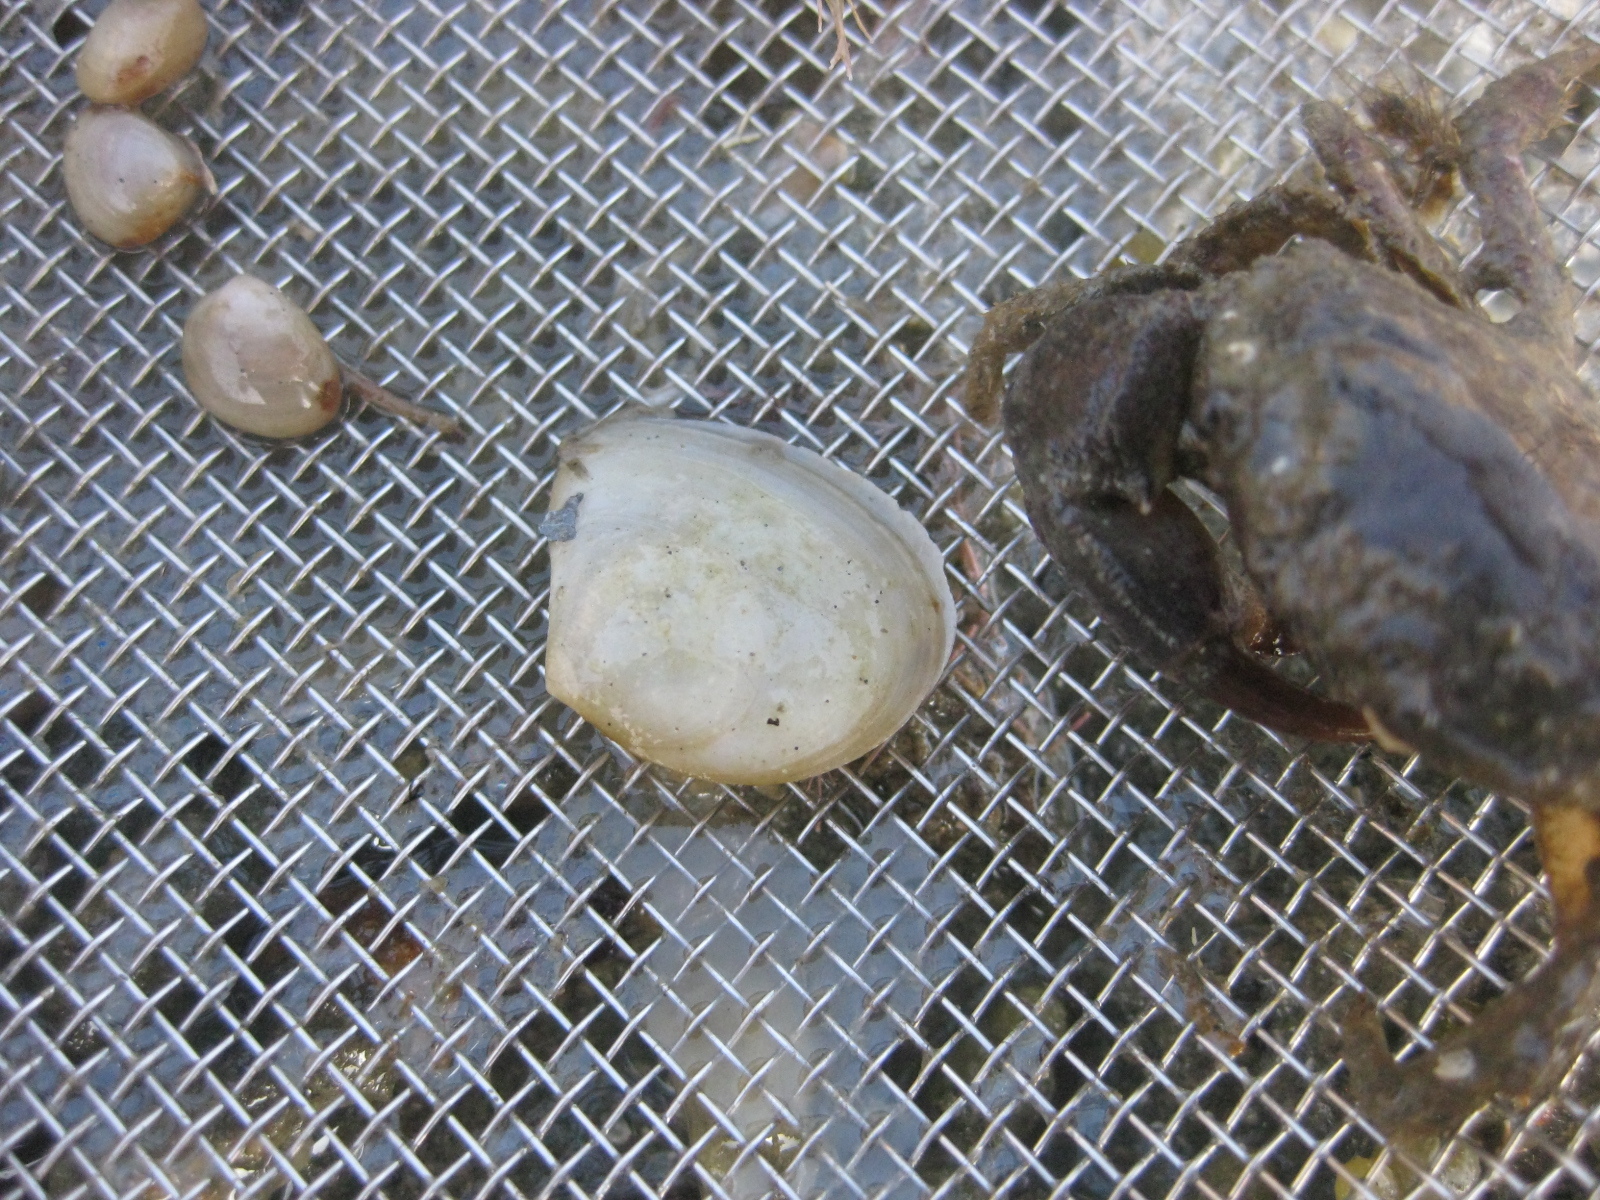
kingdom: Animalia
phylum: Mollusca
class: Bivalvia
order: Cardiida
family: Tellinidae
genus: Macomona
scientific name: Macomona liliana
